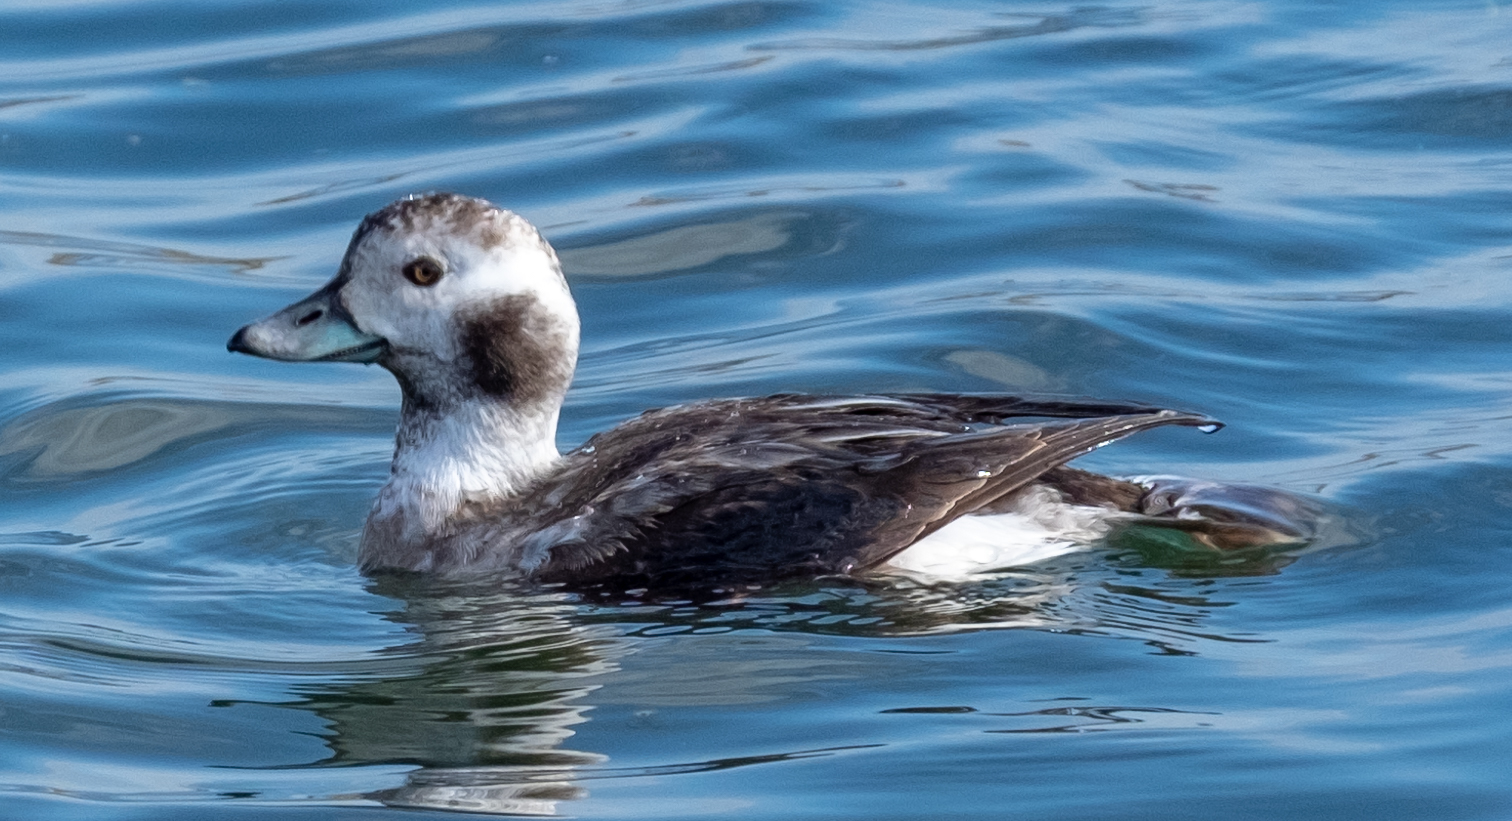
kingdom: Animalia
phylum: Chordata
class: Aves
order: Anseriformes
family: Anatidae
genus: Clangula
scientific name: Clangula hyemalis
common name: Long-tailed duck
